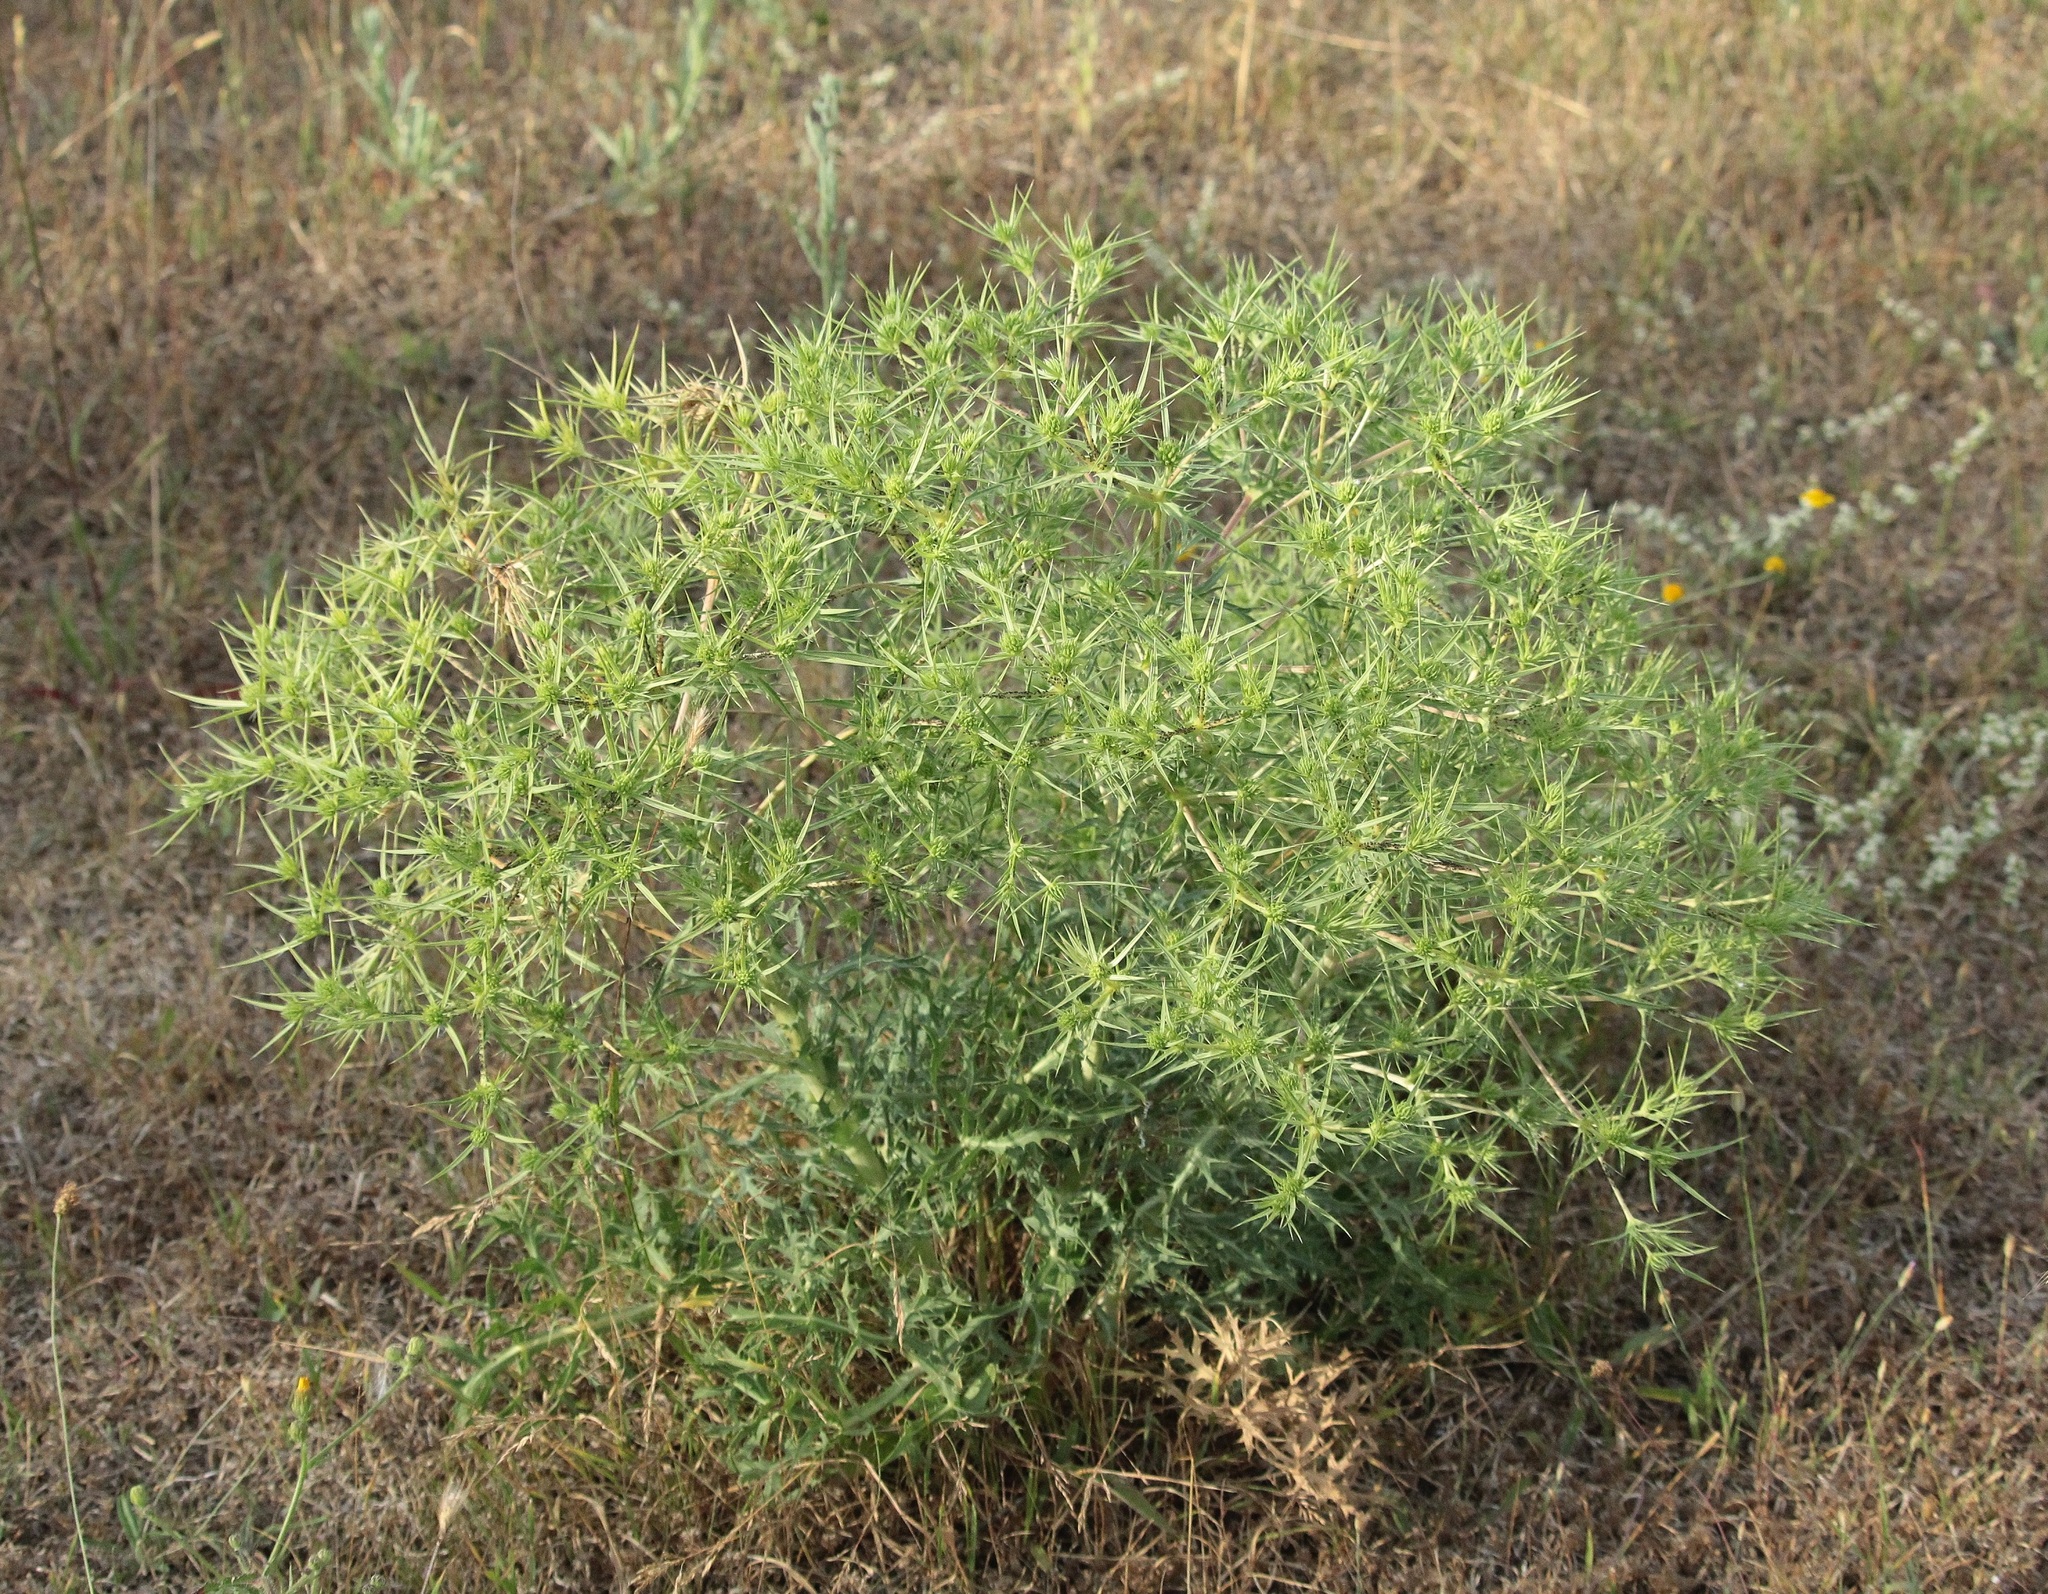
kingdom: Plantae
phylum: Tracheophyta
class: Magnoliopsida
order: Apiales
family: Apiaceae
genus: Eryngium
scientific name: Eryngium campestre
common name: Field eryngo
